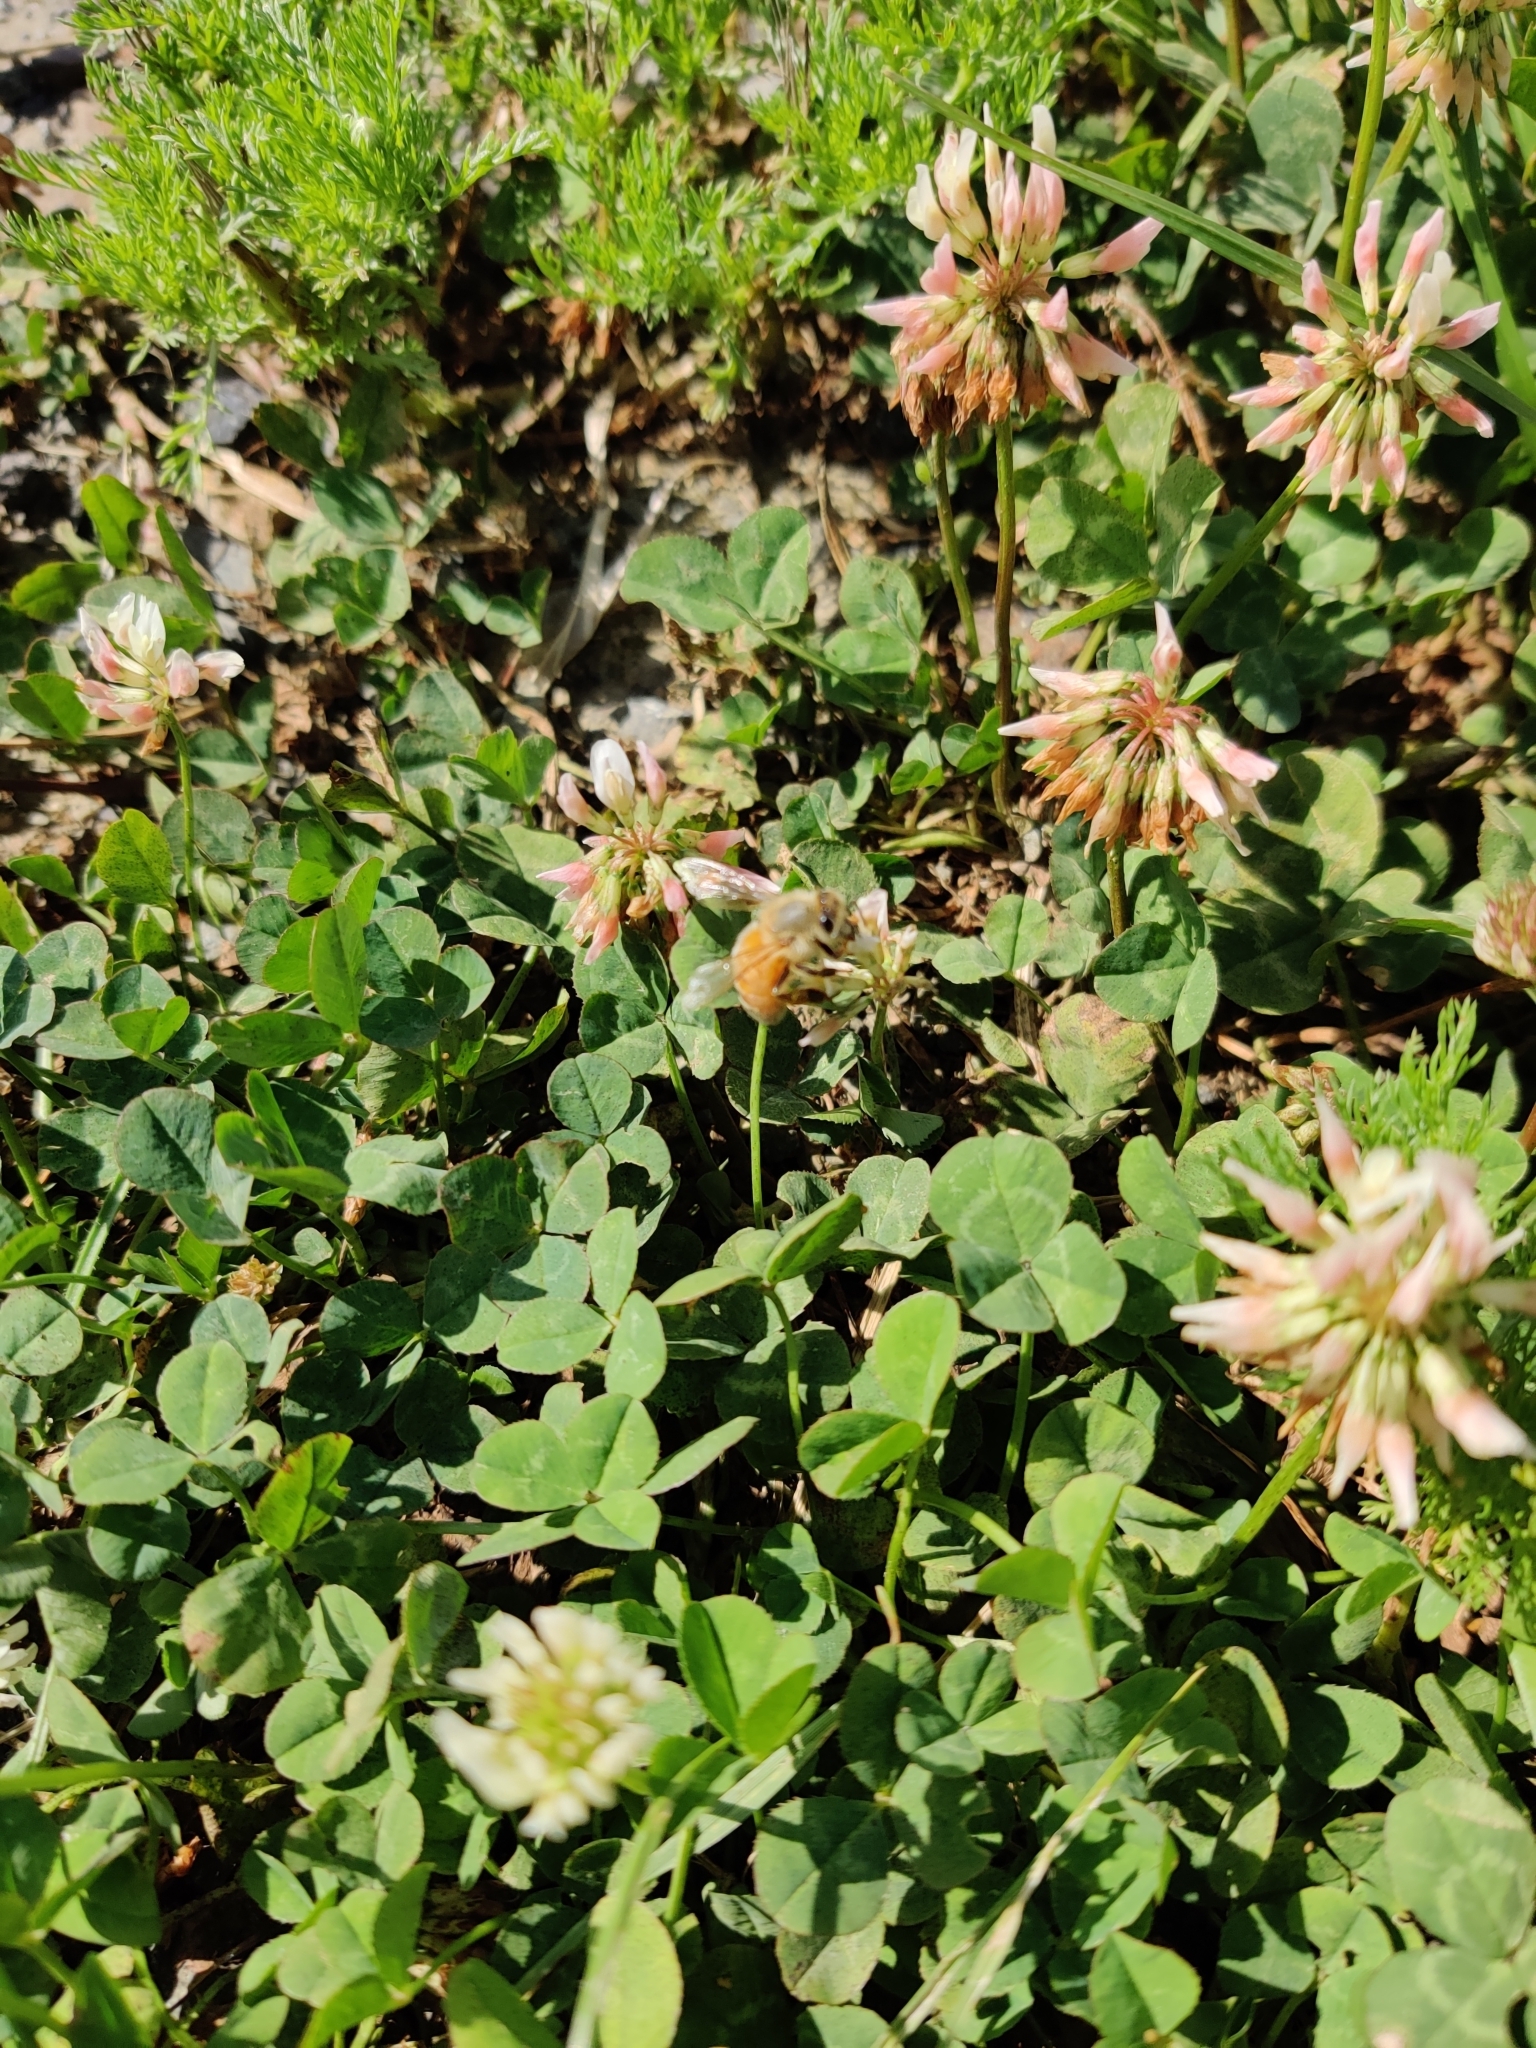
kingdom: Animalia
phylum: Arthropoda
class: Insecta
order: Hymenoptera
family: Apidae
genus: Apis
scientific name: Apis mellifera
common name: Honey bee
